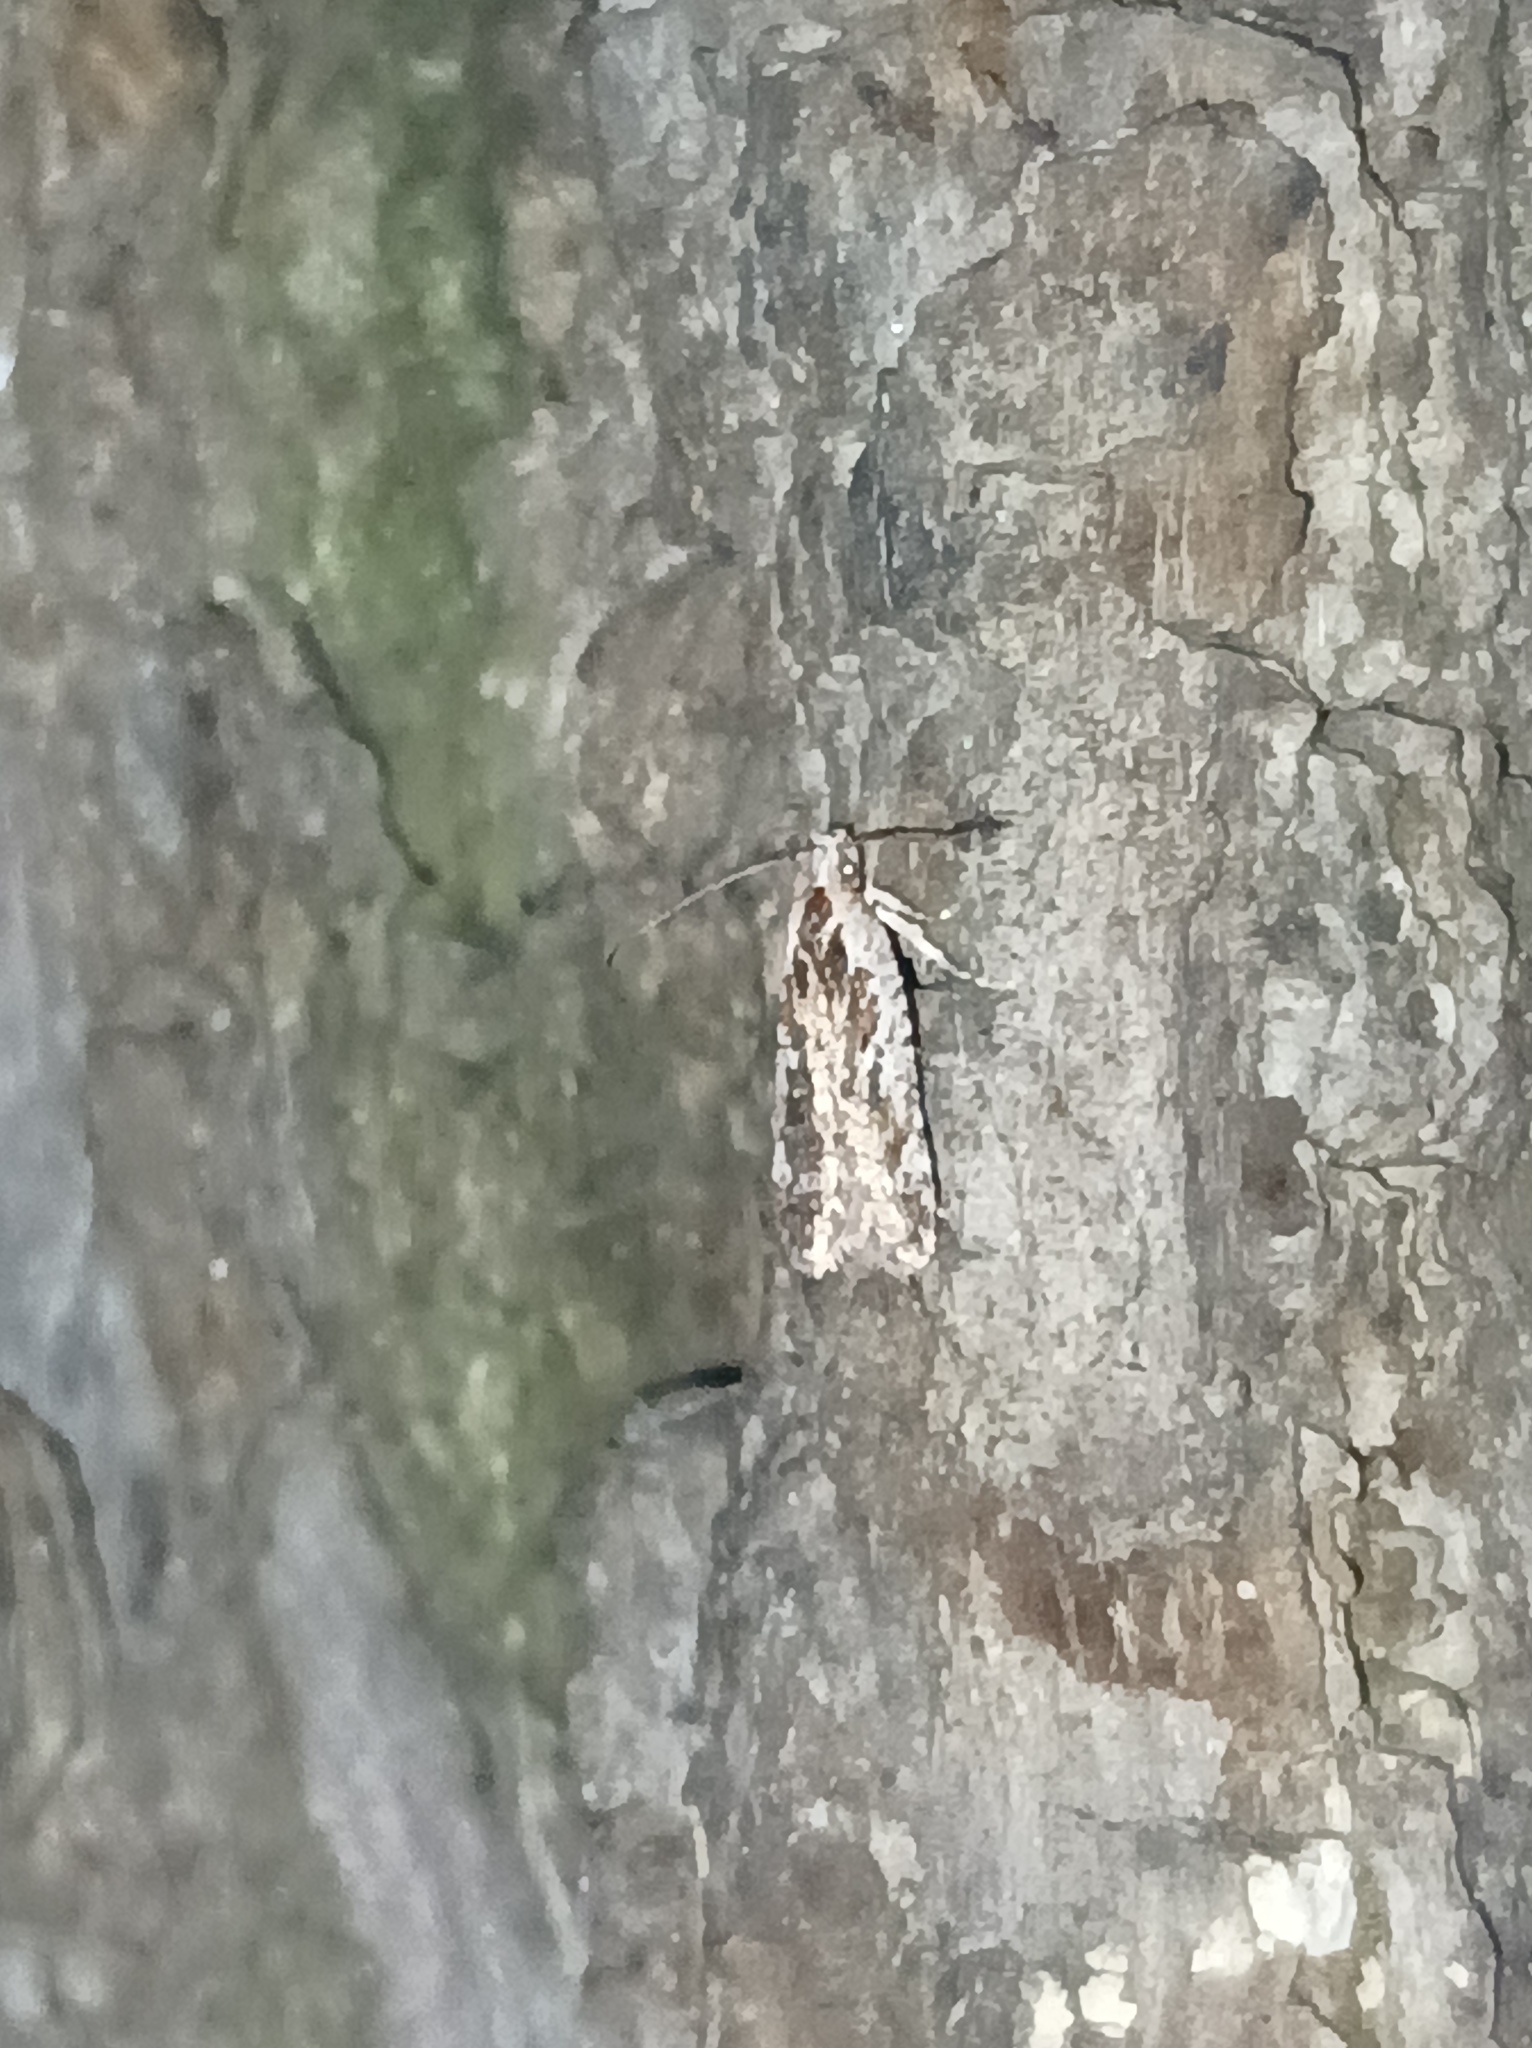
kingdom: Animalia
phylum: Arthropoda
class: Insecta
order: Lepidoptera
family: Depressariidae
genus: Agonopterix
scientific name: Agonopterix hypericella
